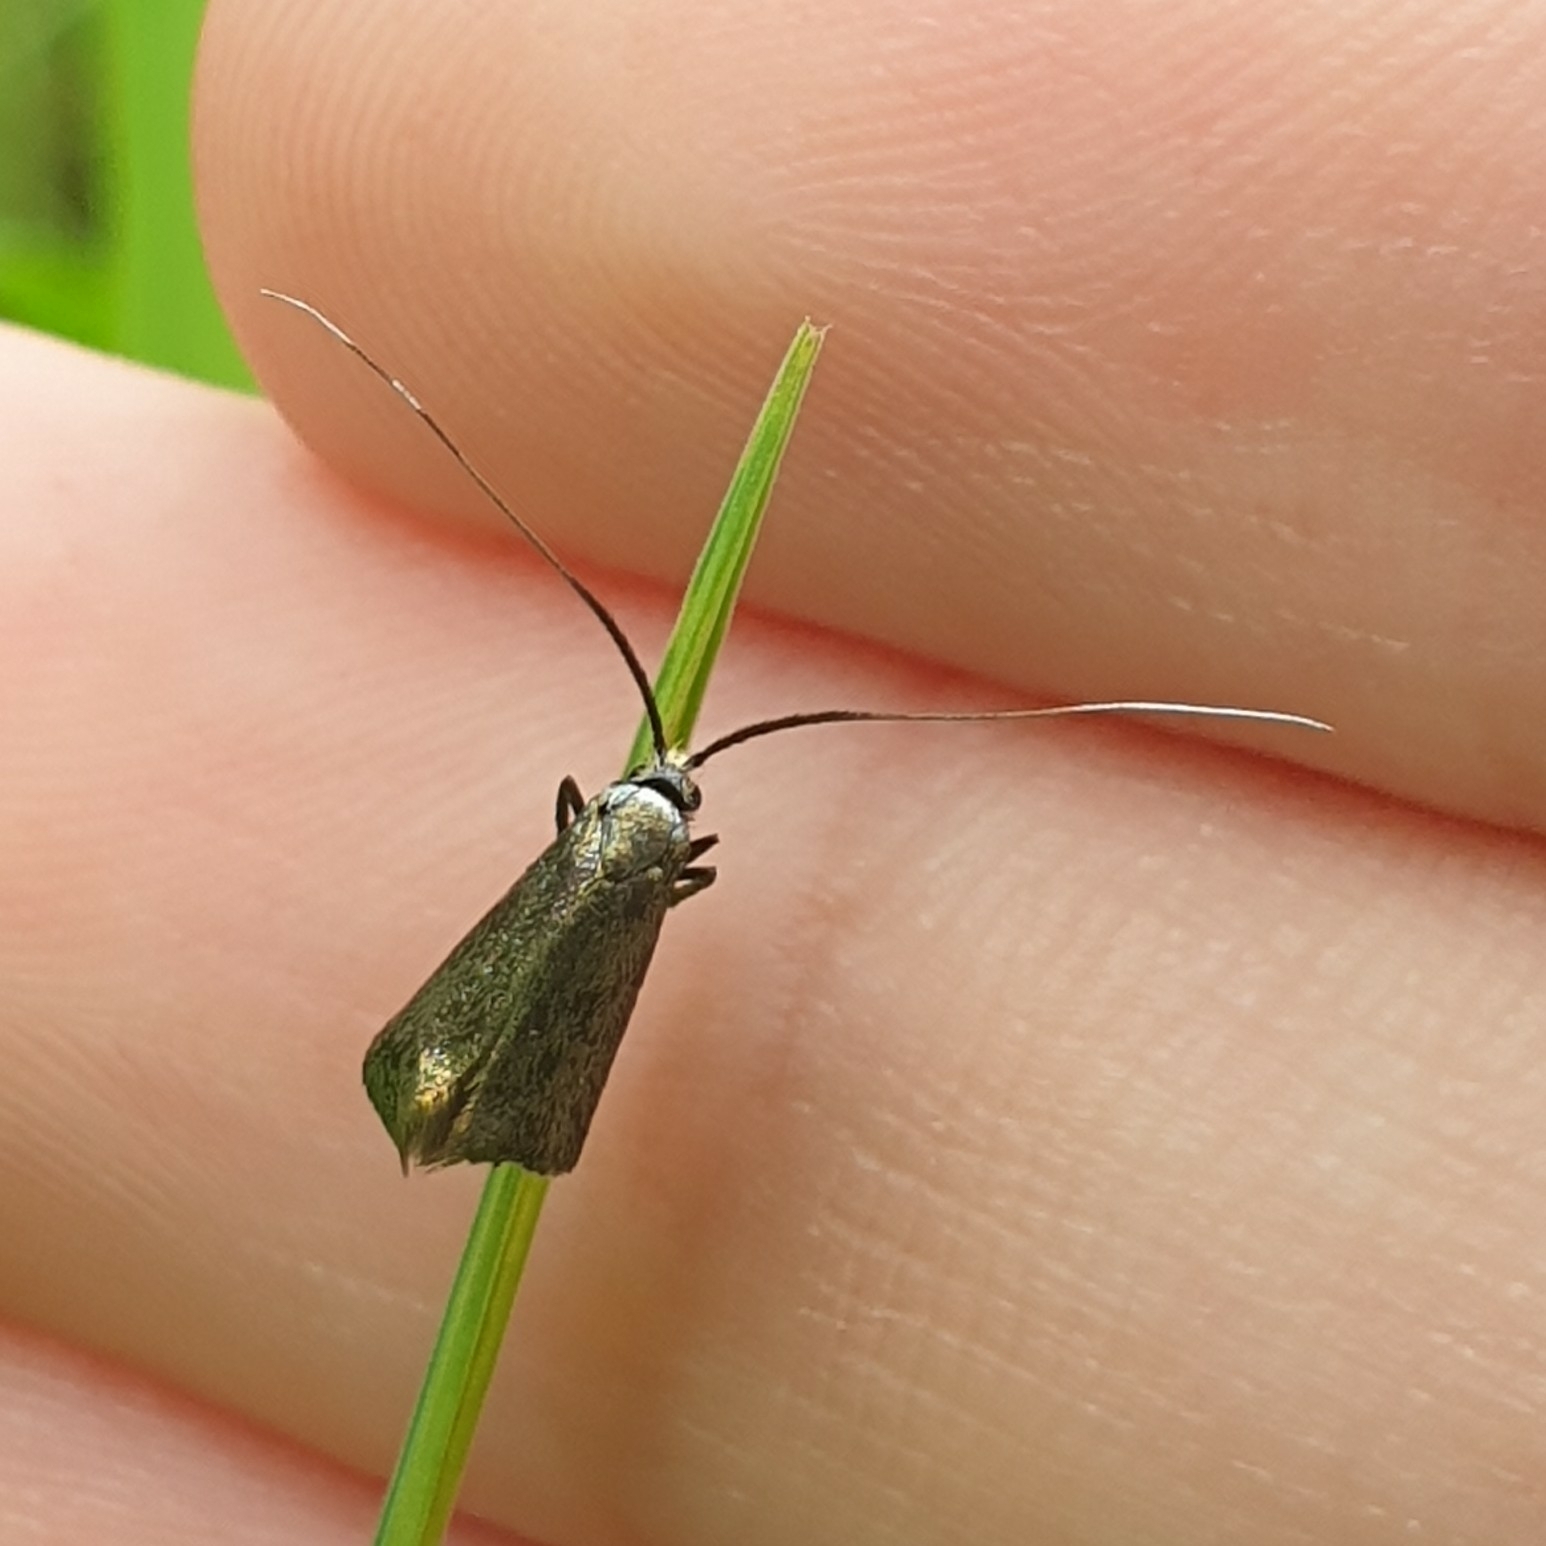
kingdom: Animalia
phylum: Arthropoda
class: Insecta
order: Lepidoptera
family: Adelidae
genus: Adela
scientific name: Adela viridella
